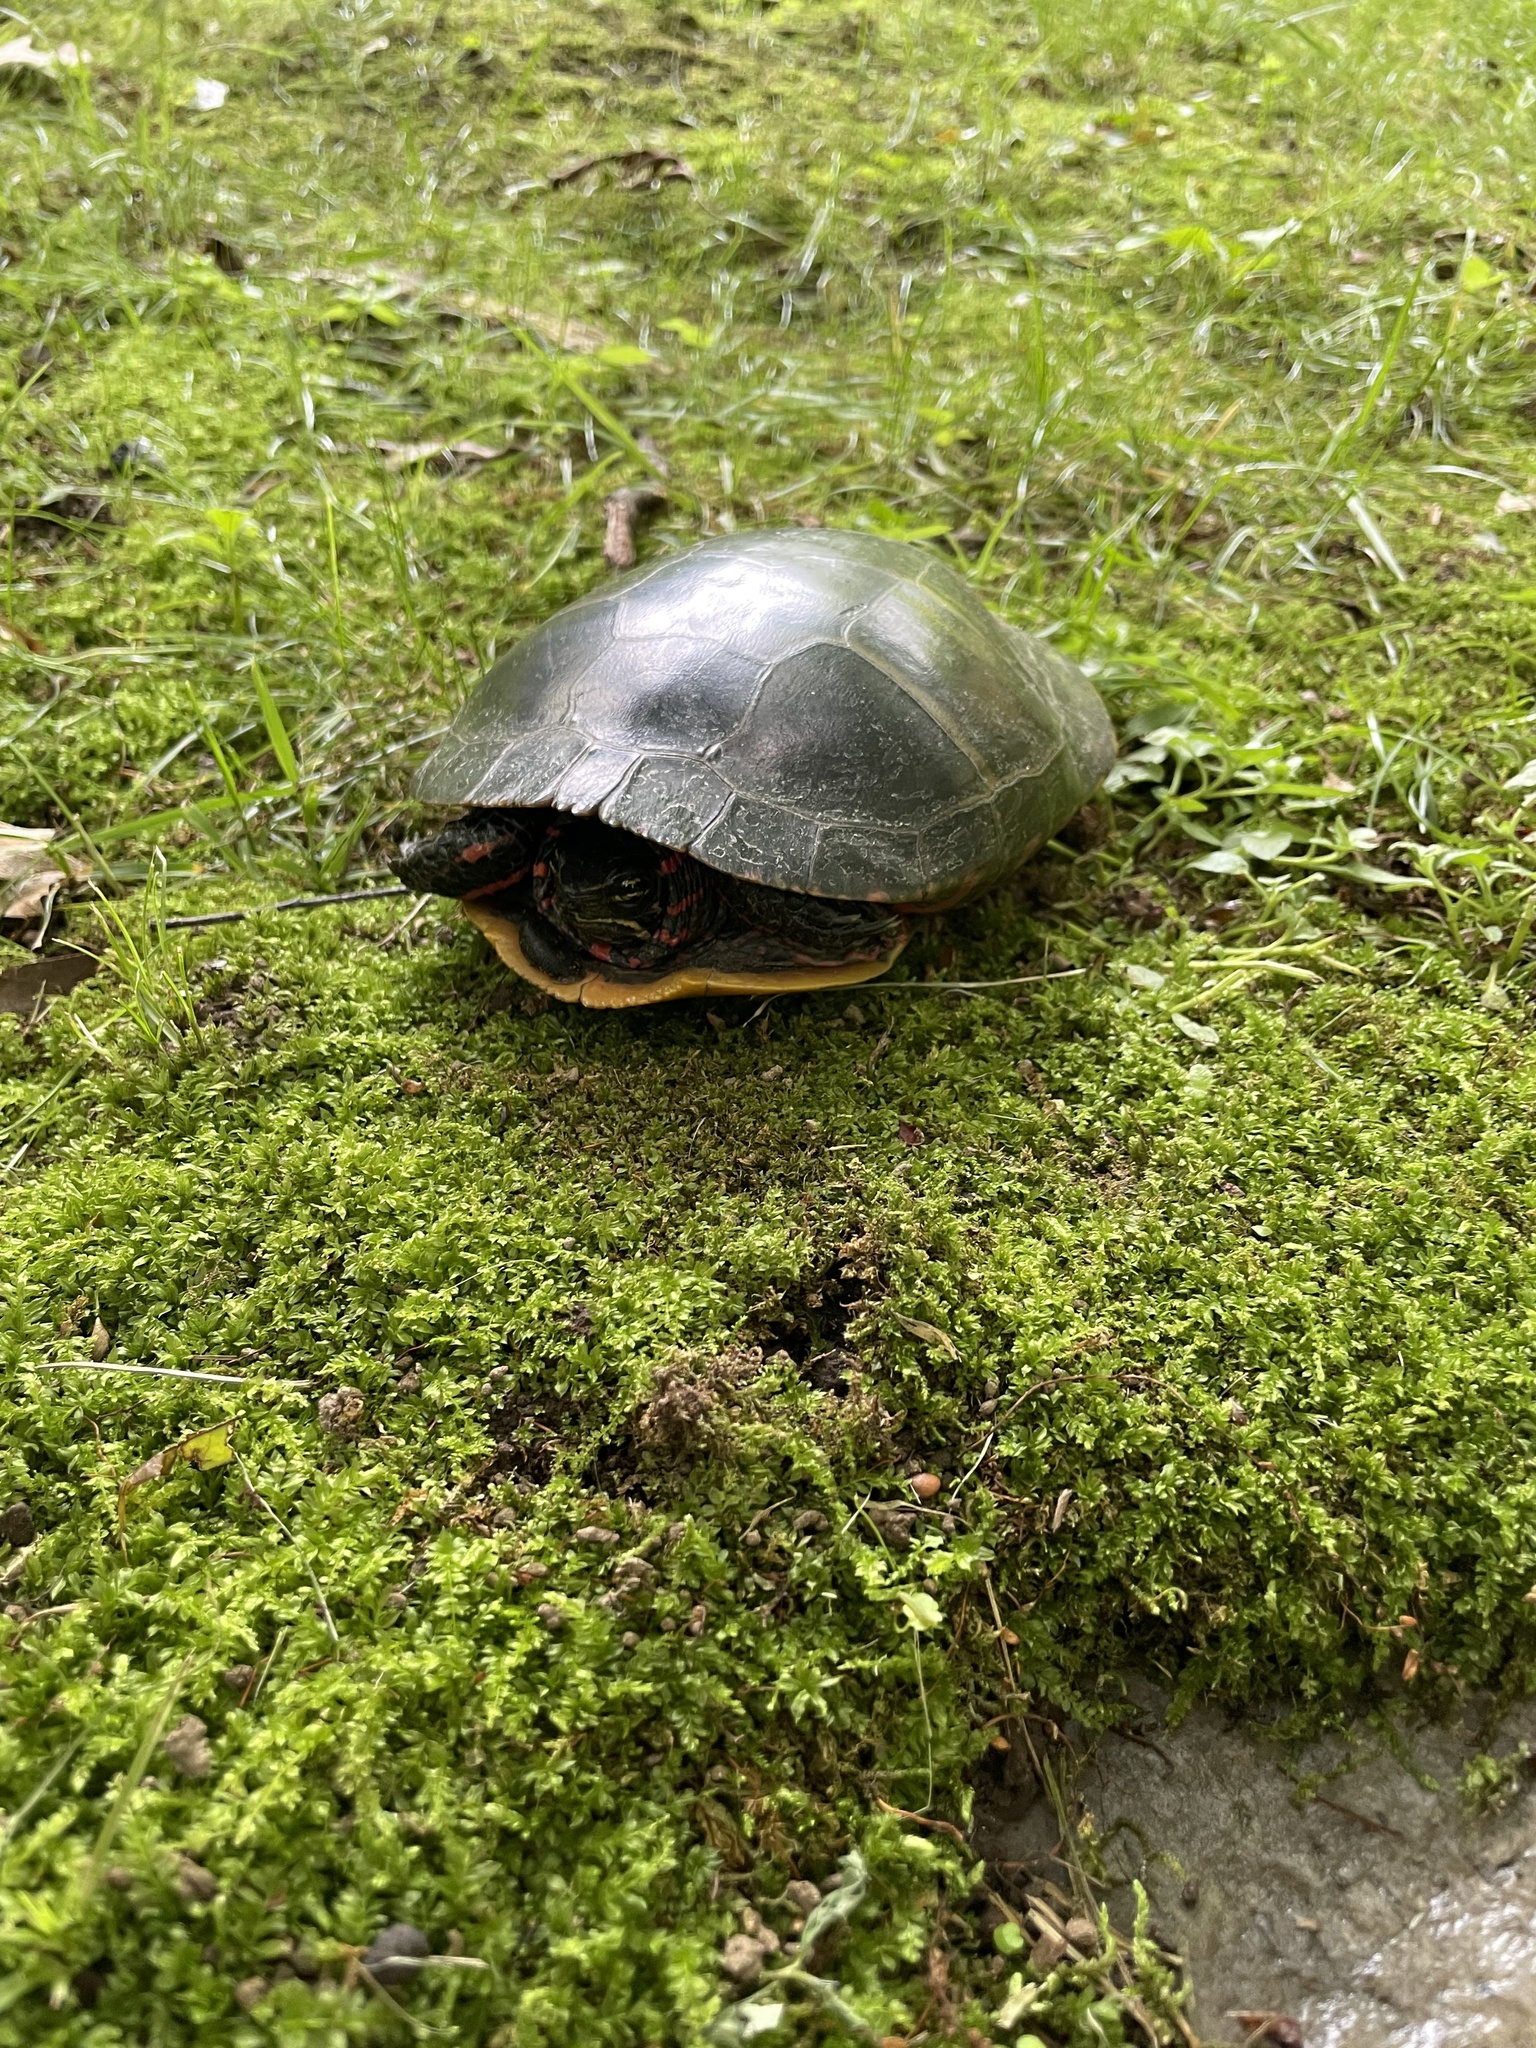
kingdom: Animalia
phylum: Chordata
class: Testudines
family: Emydidae
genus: Chrysemys
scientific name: Chrysemys picta
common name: Painted turtle
